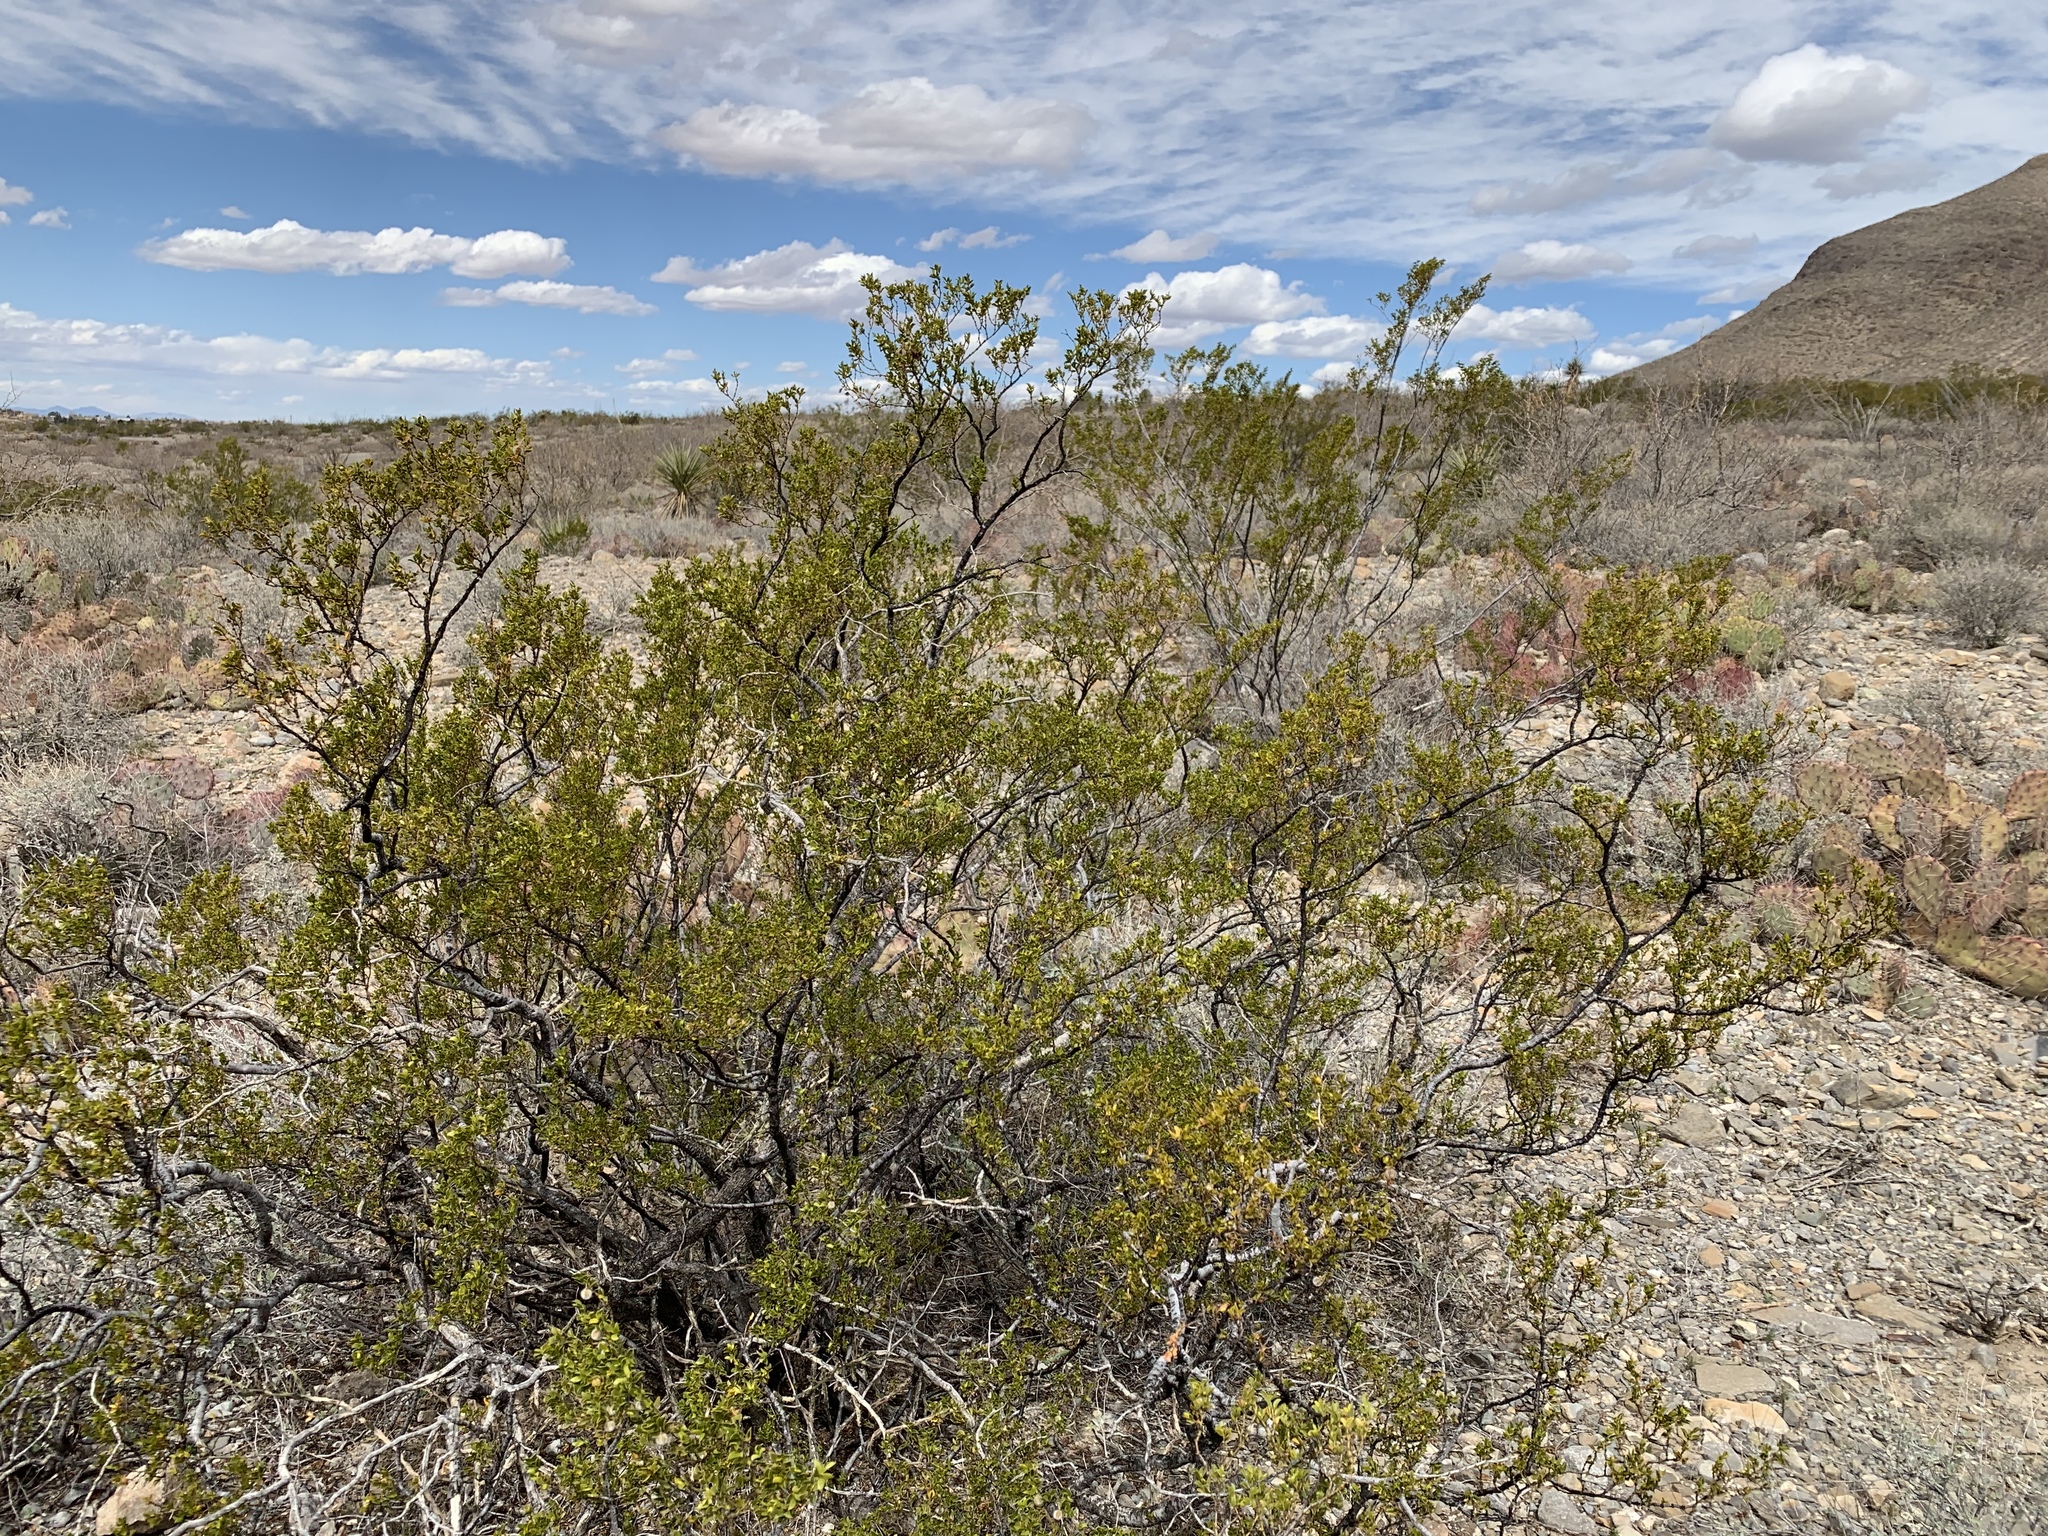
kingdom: Plantae
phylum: Tracheophyta
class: Magnoliopsida
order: Zygophyllales
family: Zygophyllaceae
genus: Larrea
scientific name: Larrea tridentata
